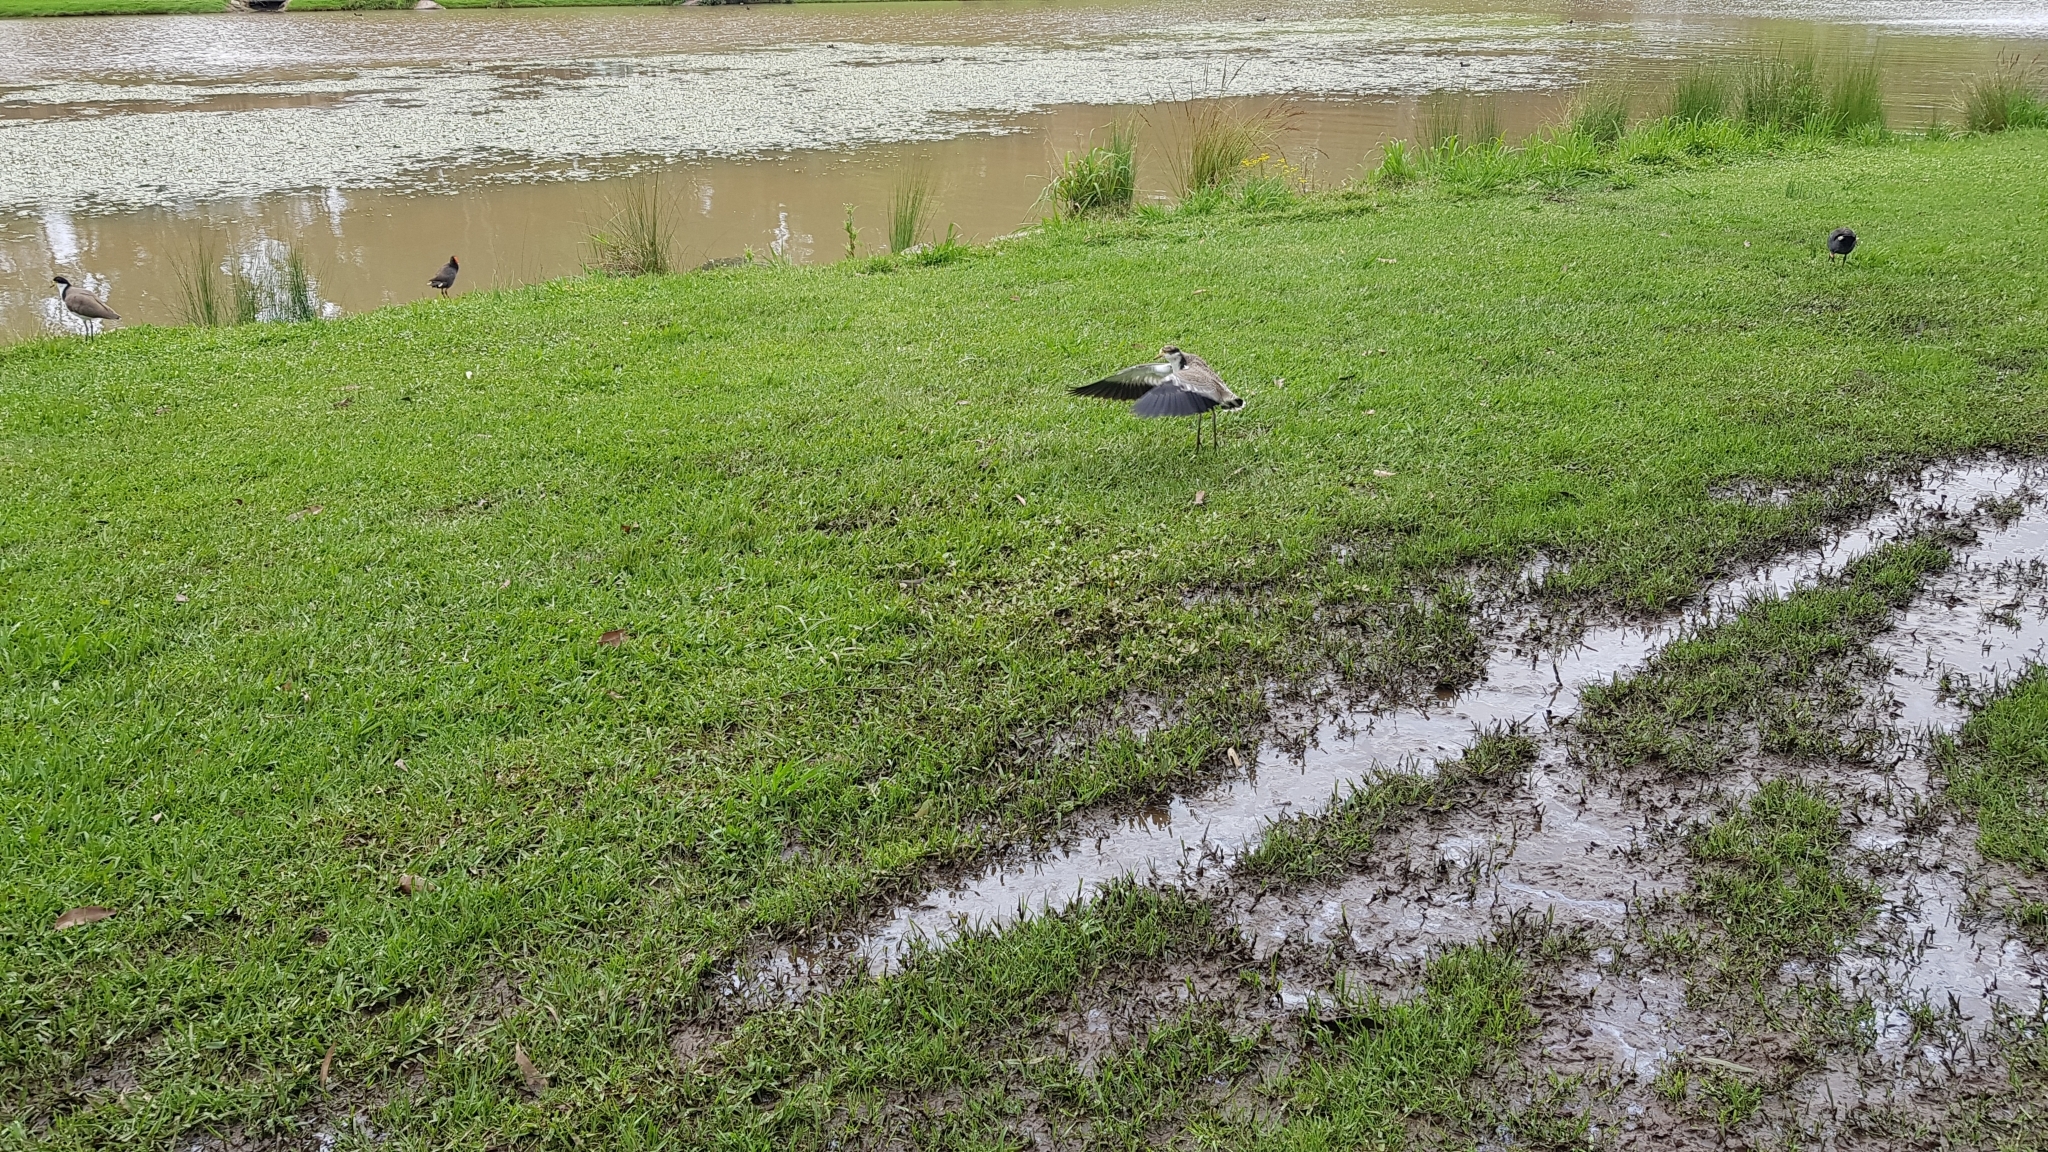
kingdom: Animalia
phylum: Chordata
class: Aves
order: Charadriiformes
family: Charadriidae
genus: Vanellus
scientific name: Vanellus miles
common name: Masked lapwing
